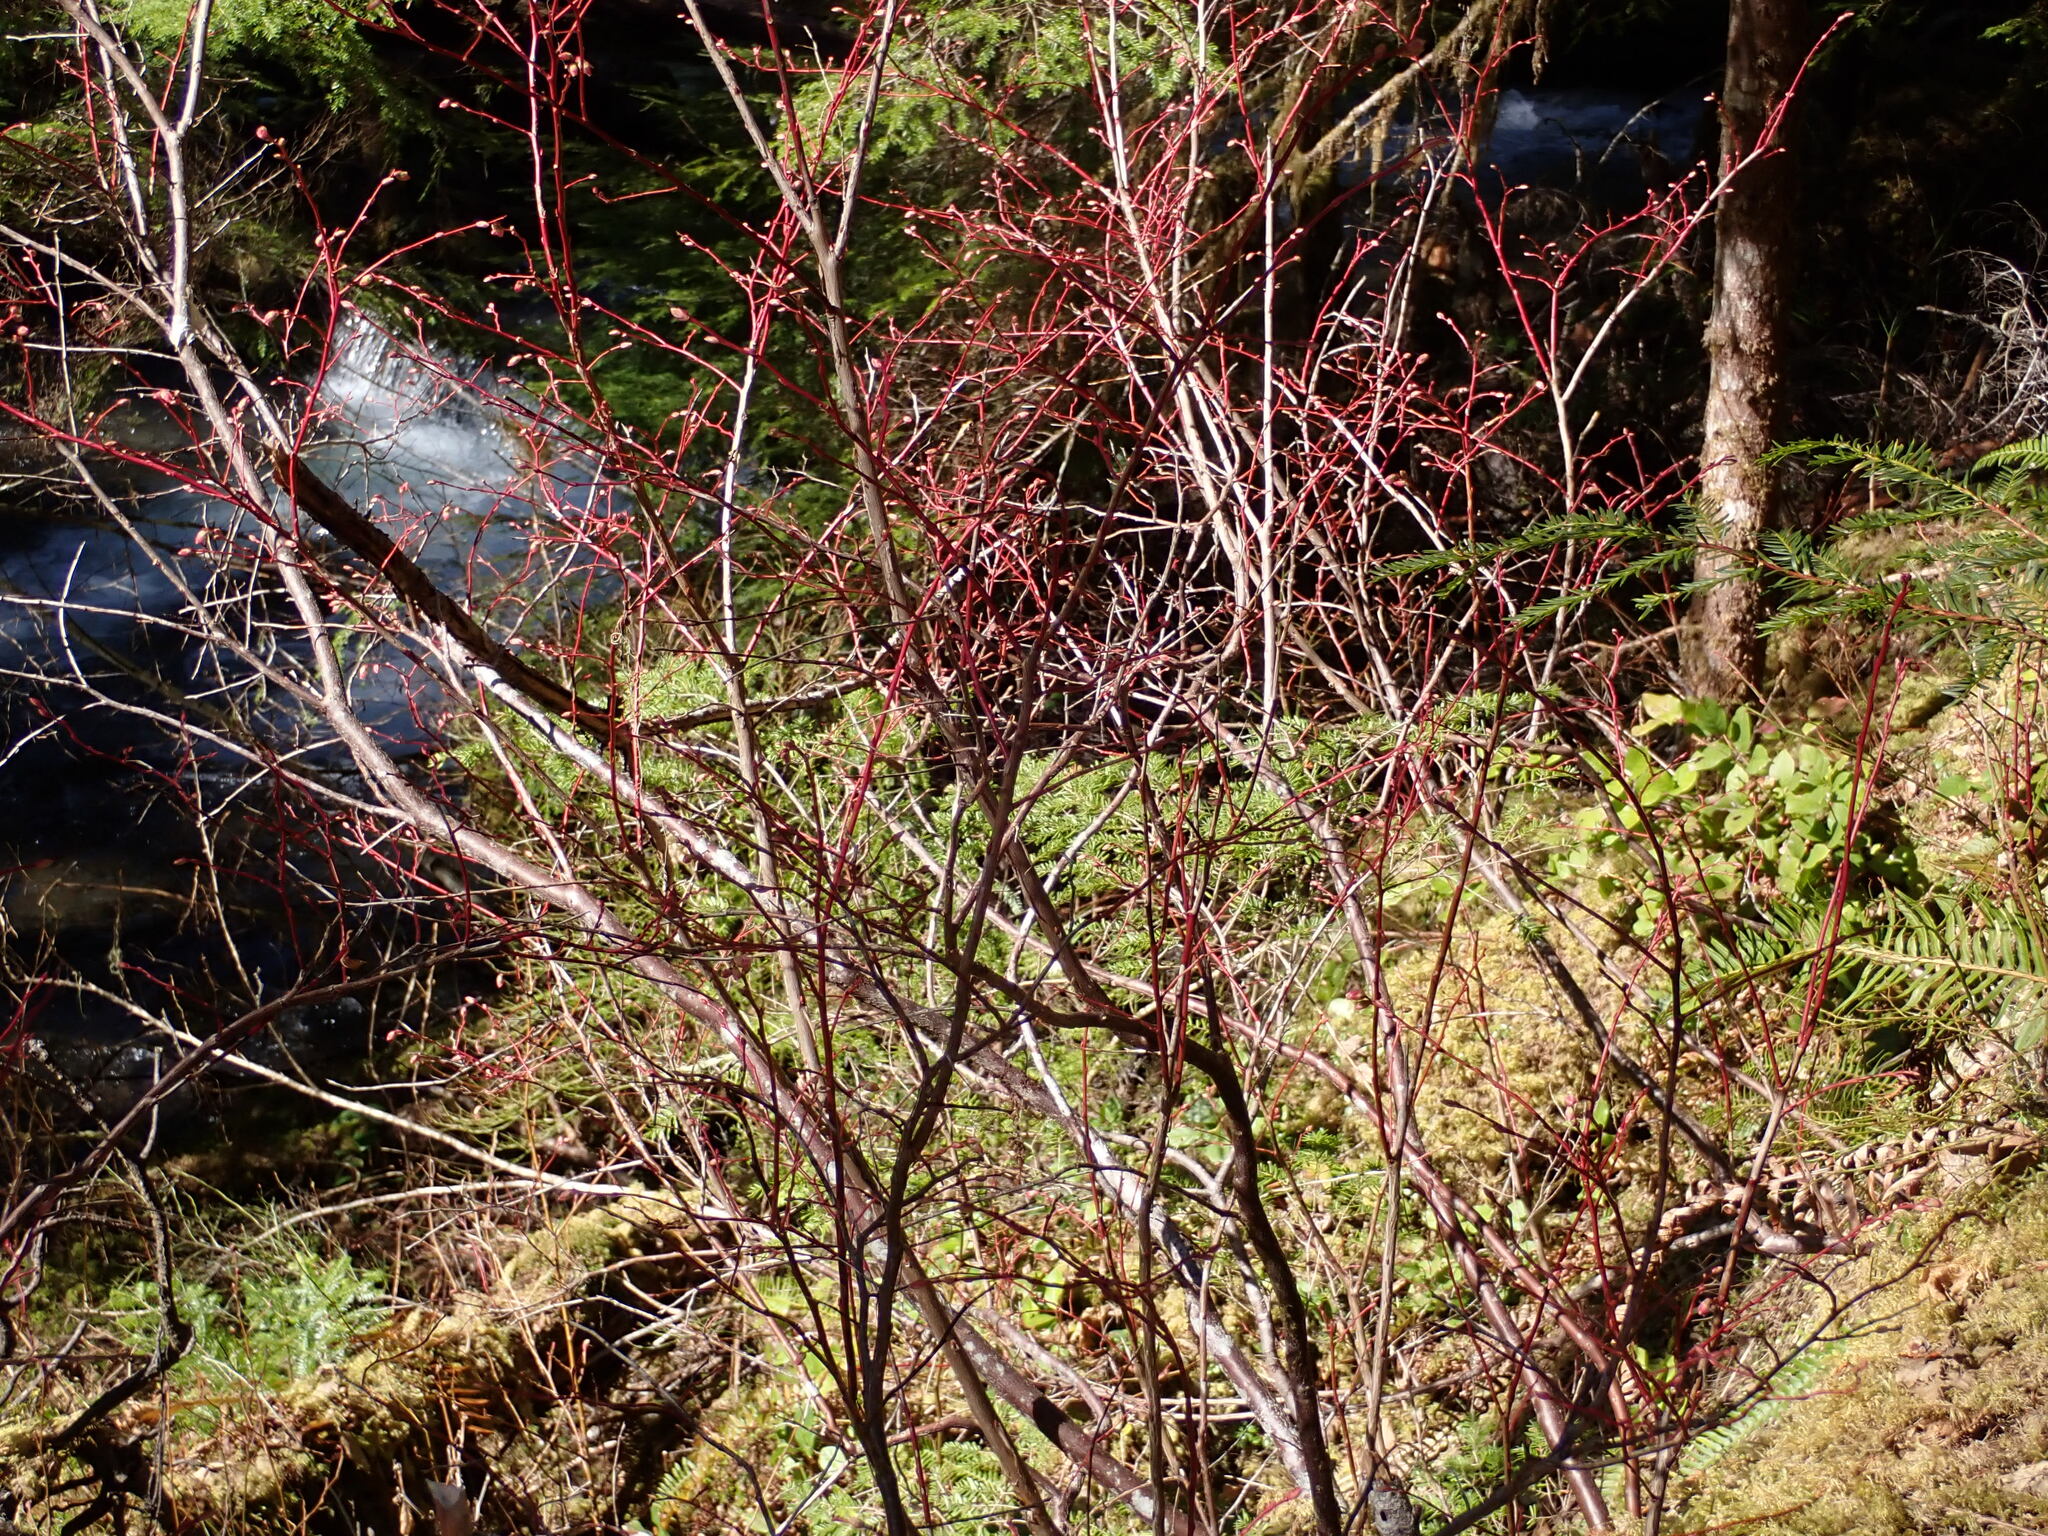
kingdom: Plantae
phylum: Tracheophyta
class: Magnoliopsida
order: Ericales
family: Ericaceae
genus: Vaccinium
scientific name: Vaccinium ovalifolium
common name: Early blueberry
